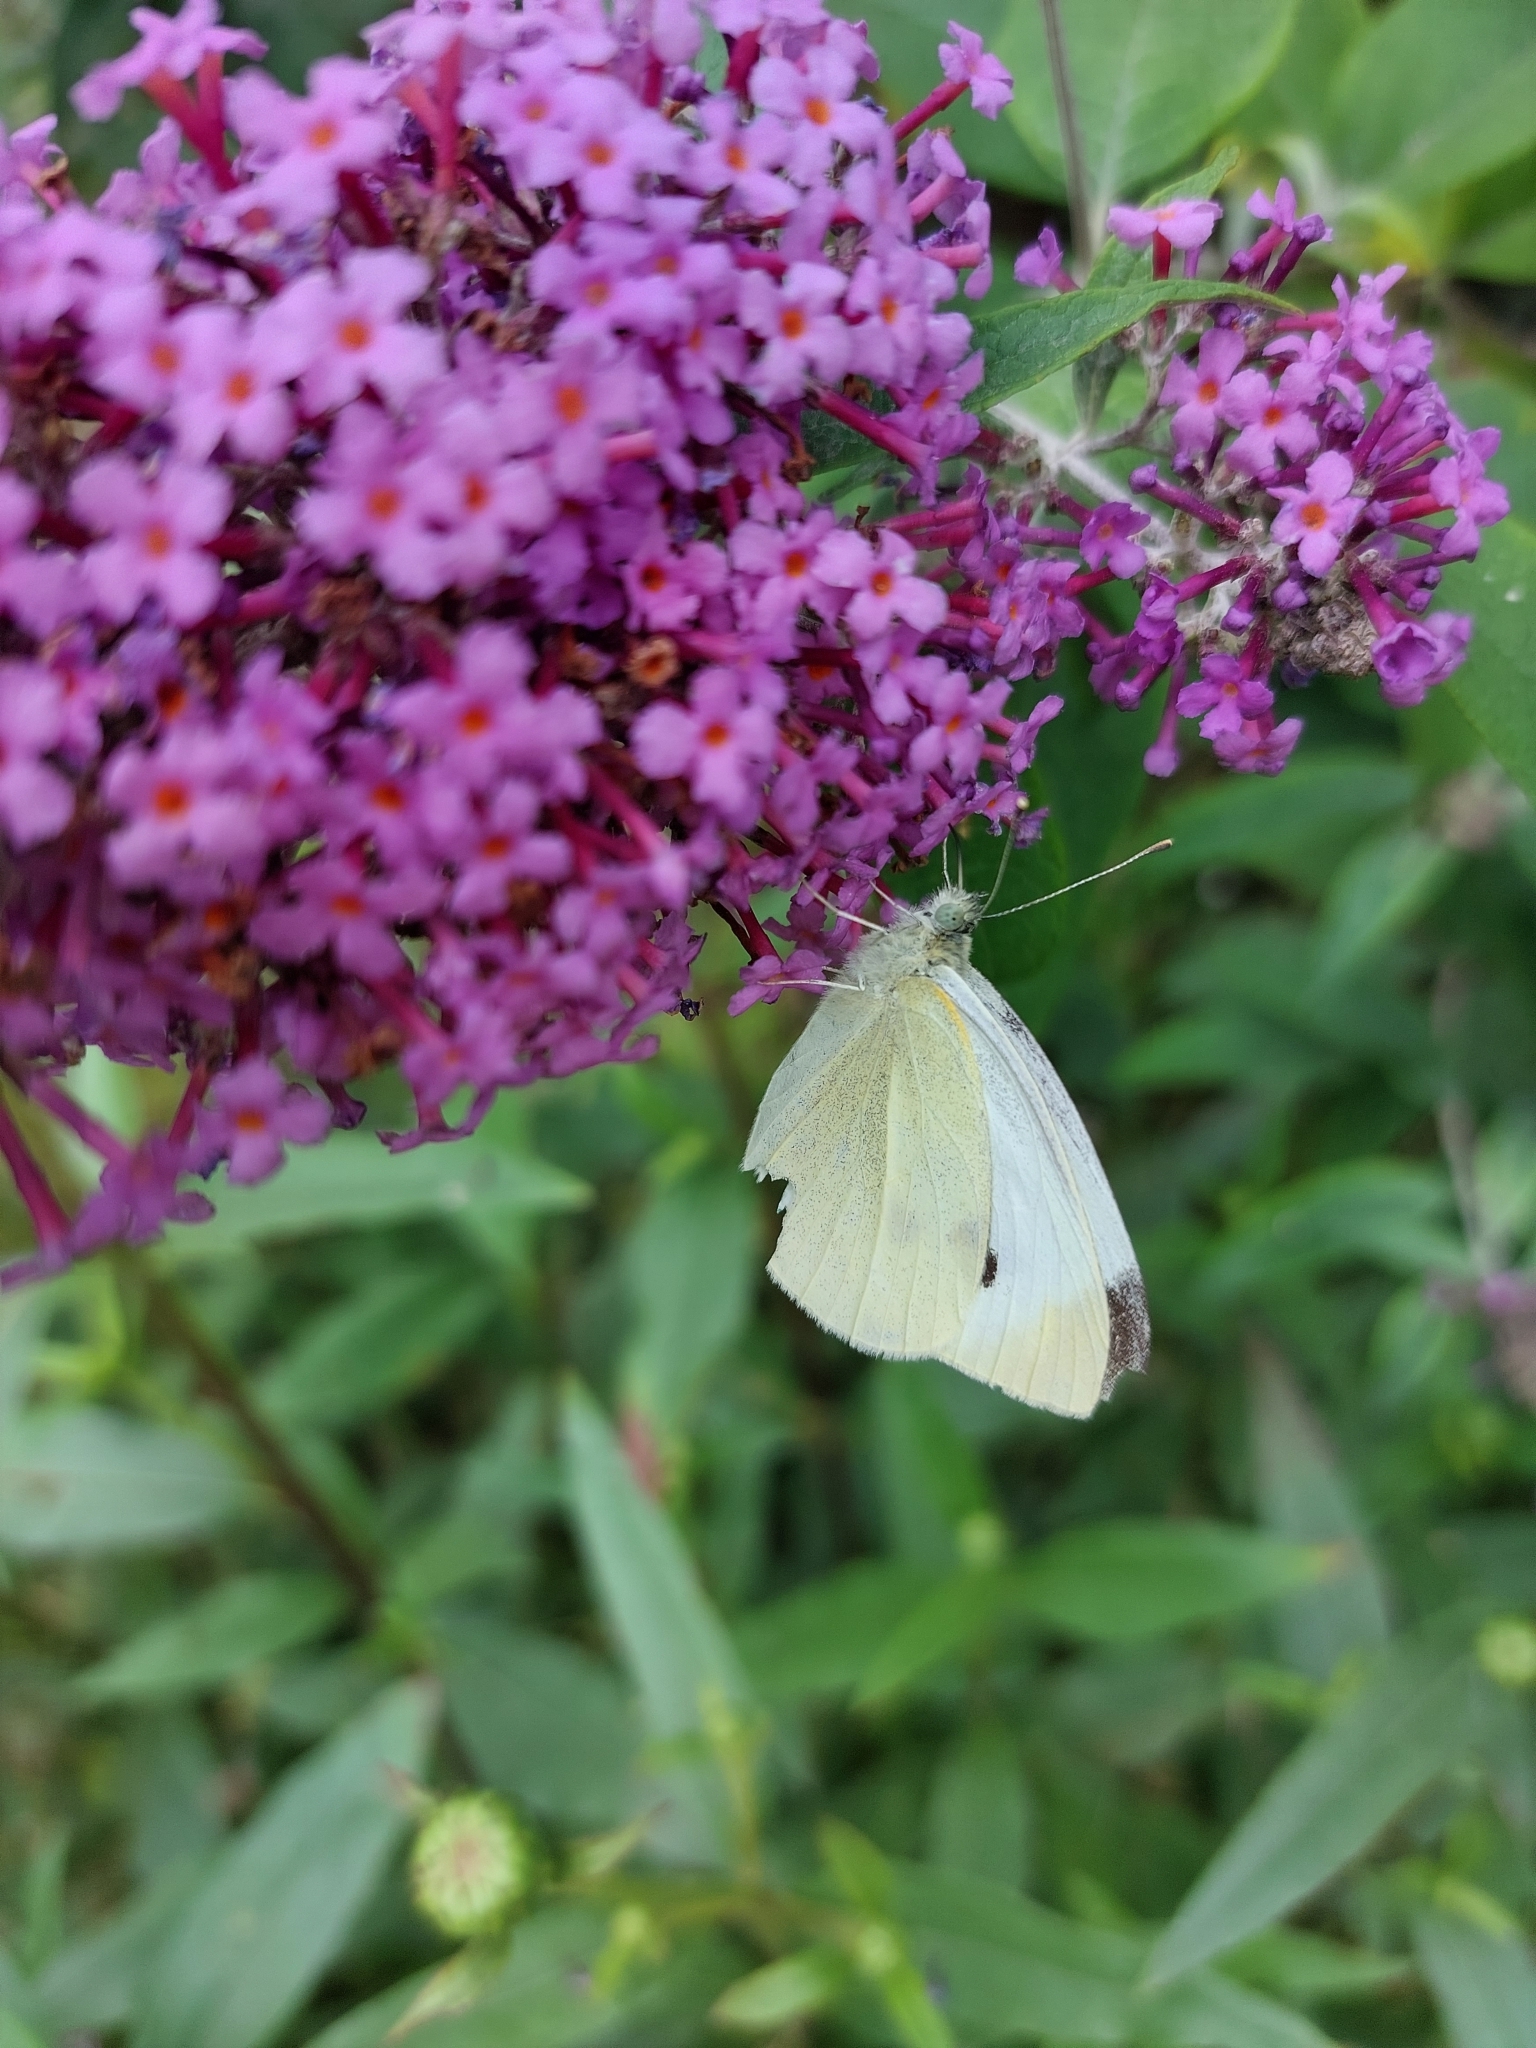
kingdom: Animalia
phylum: Arthropoda
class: Insecta
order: Lepidoptera
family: Pieridae
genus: Pieris
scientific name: Pieris rapae
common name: Small white
